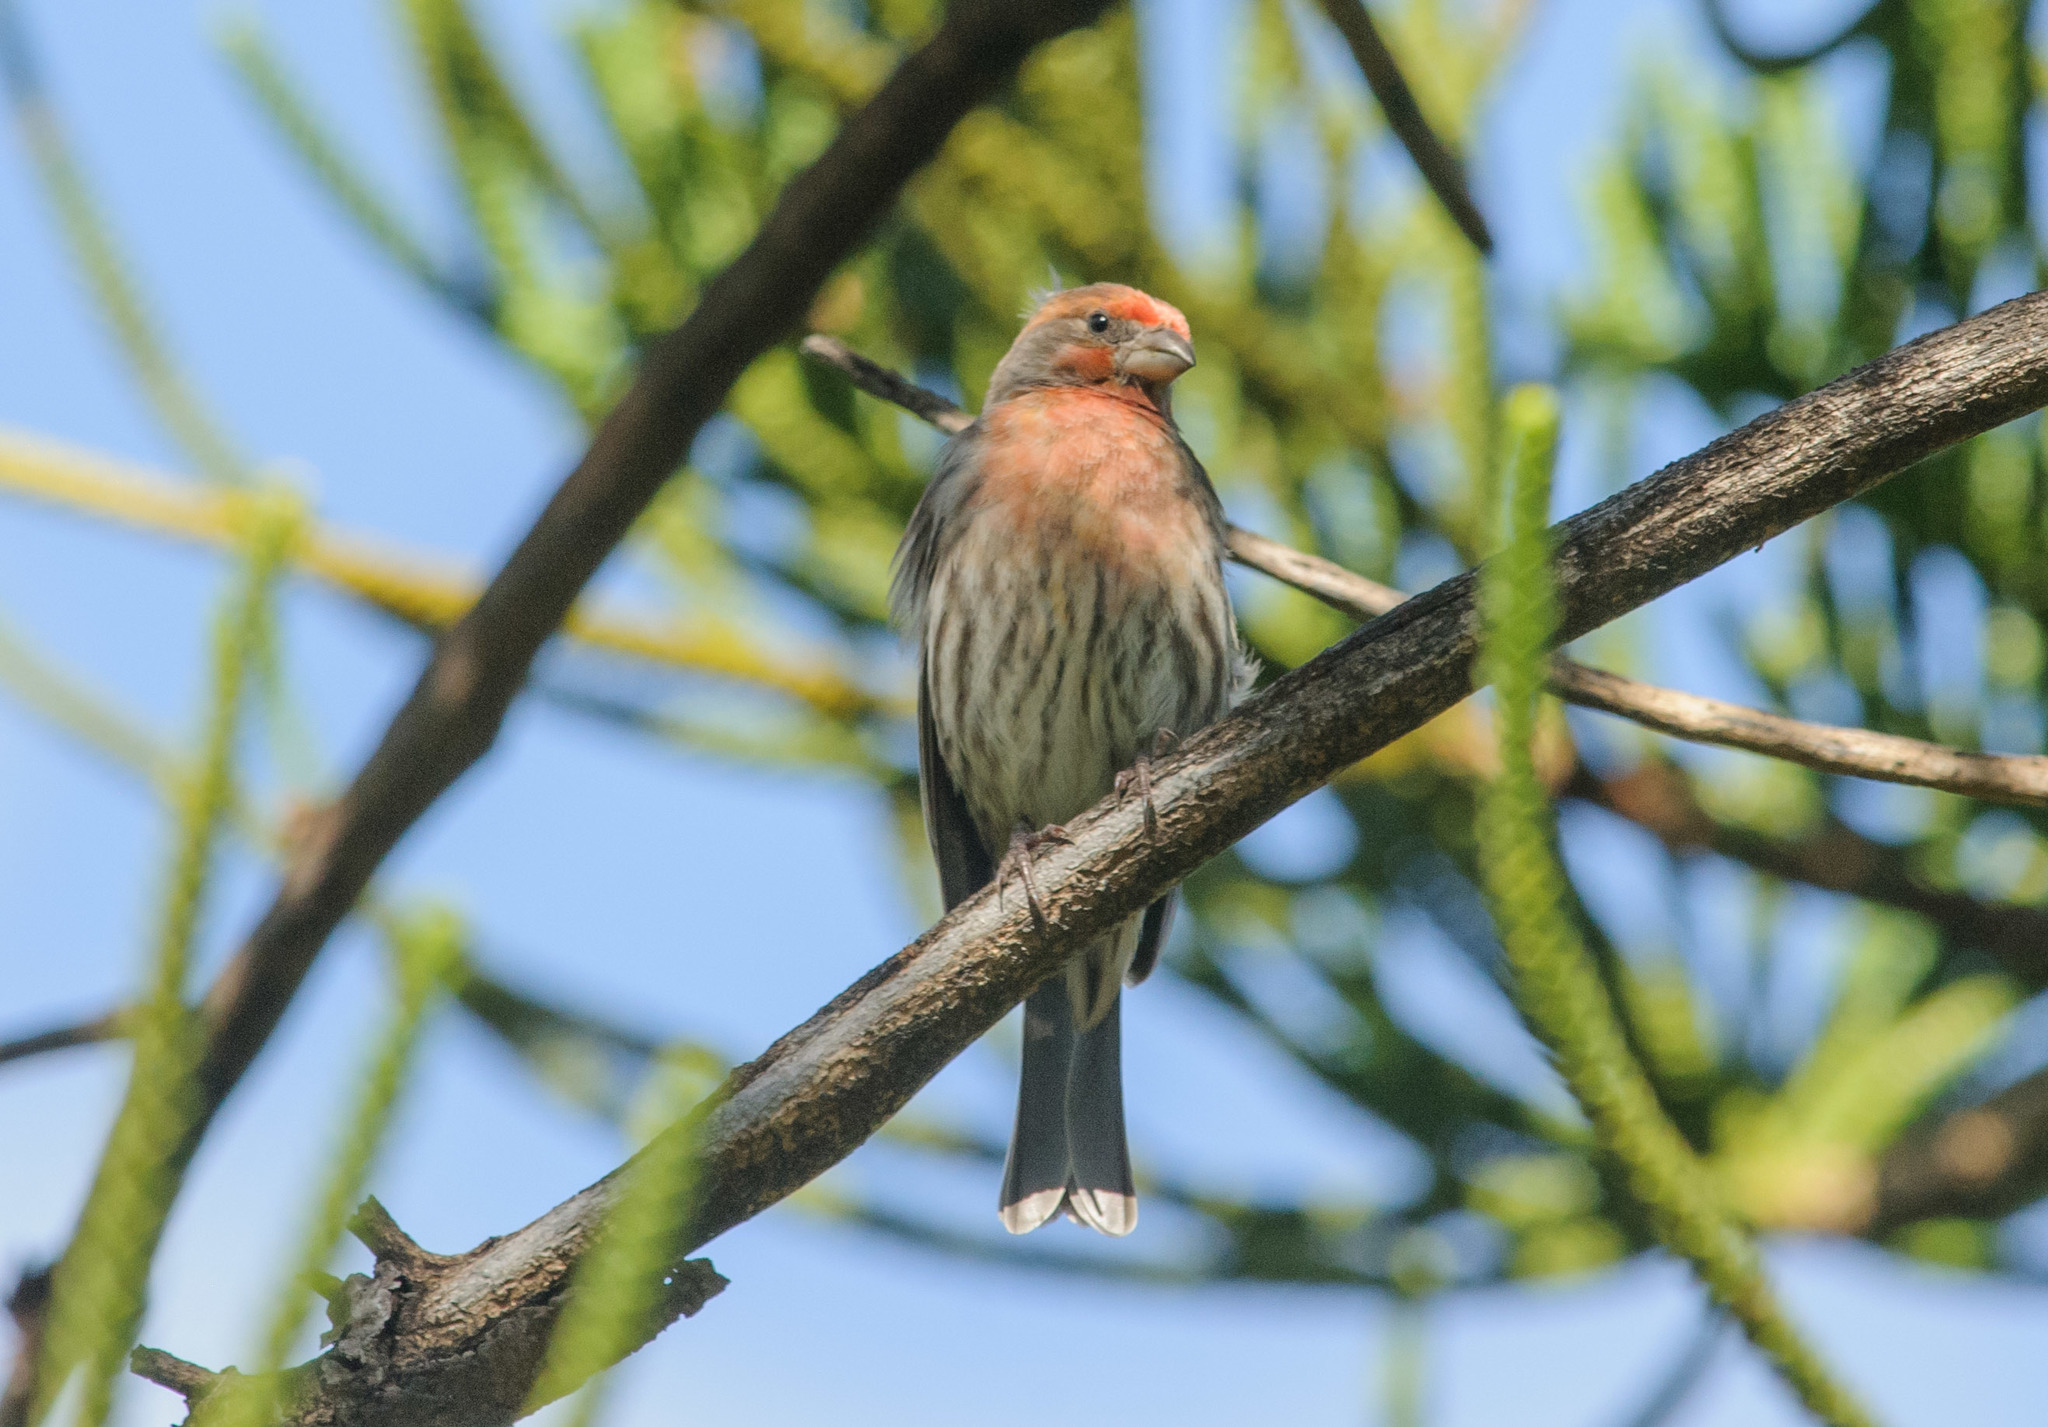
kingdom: Animalia
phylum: Chordata
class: Aves
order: Passeriformes
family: Fringillidae
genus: Haemorhous
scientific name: Haemorhous mexicanus
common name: House finch
